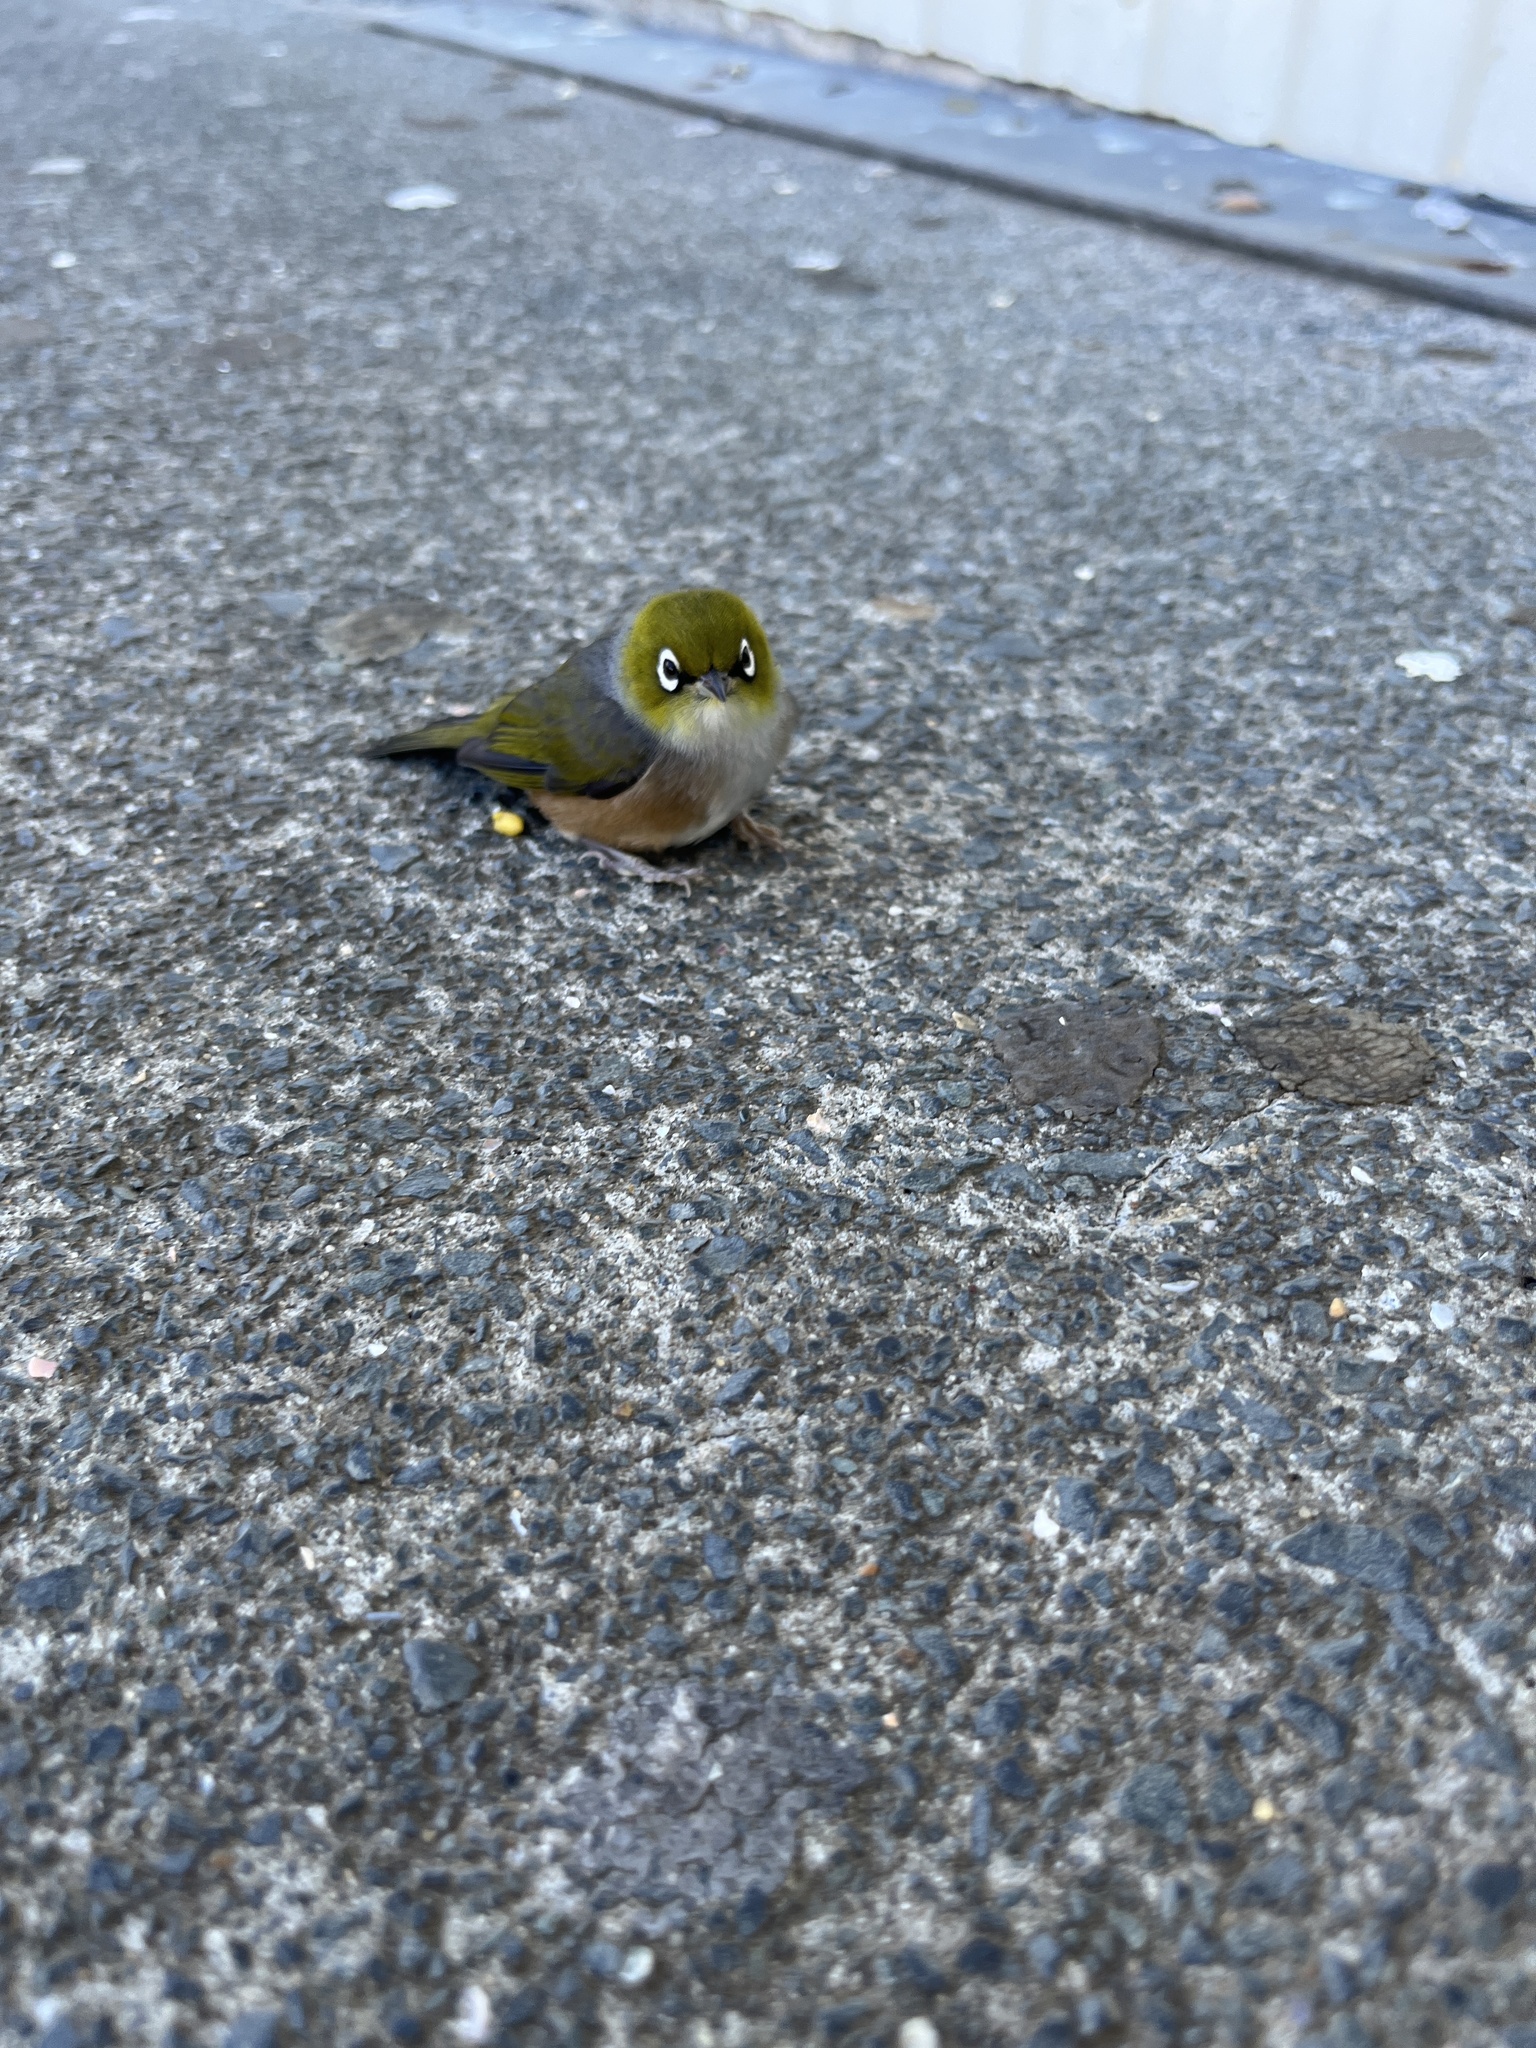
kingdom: Animalia
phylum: Chordata
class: Aves
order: Passeriformes
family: Zosteropidae
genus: Zosterops
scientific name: Zosterops lateralis
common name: Silvereye
